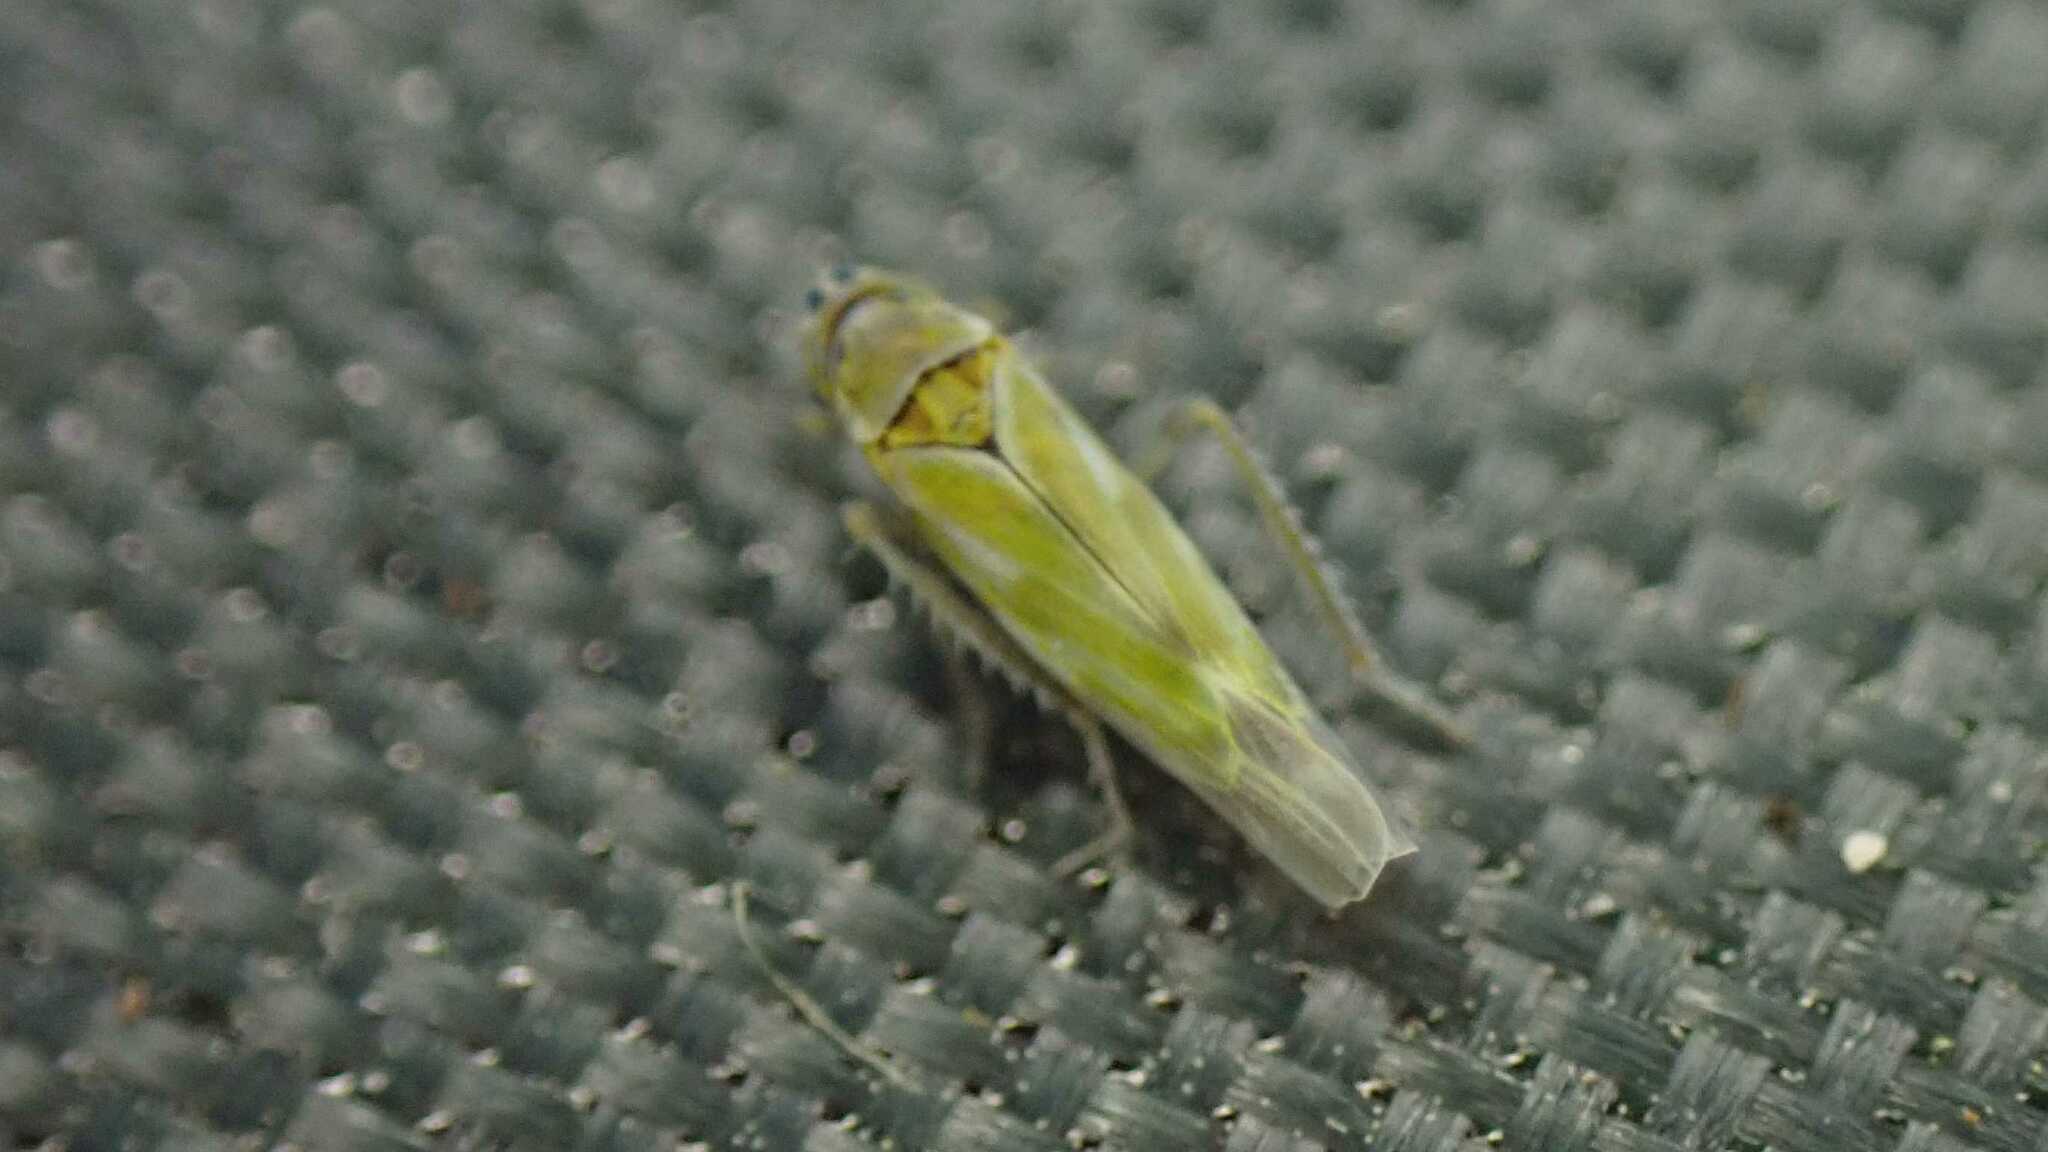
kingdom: Animalia
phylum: Arthropoda
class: Insecta
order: Hemiptera
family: Cicadellidae
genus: Frutioidia
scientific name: Frutioidia bisignata
